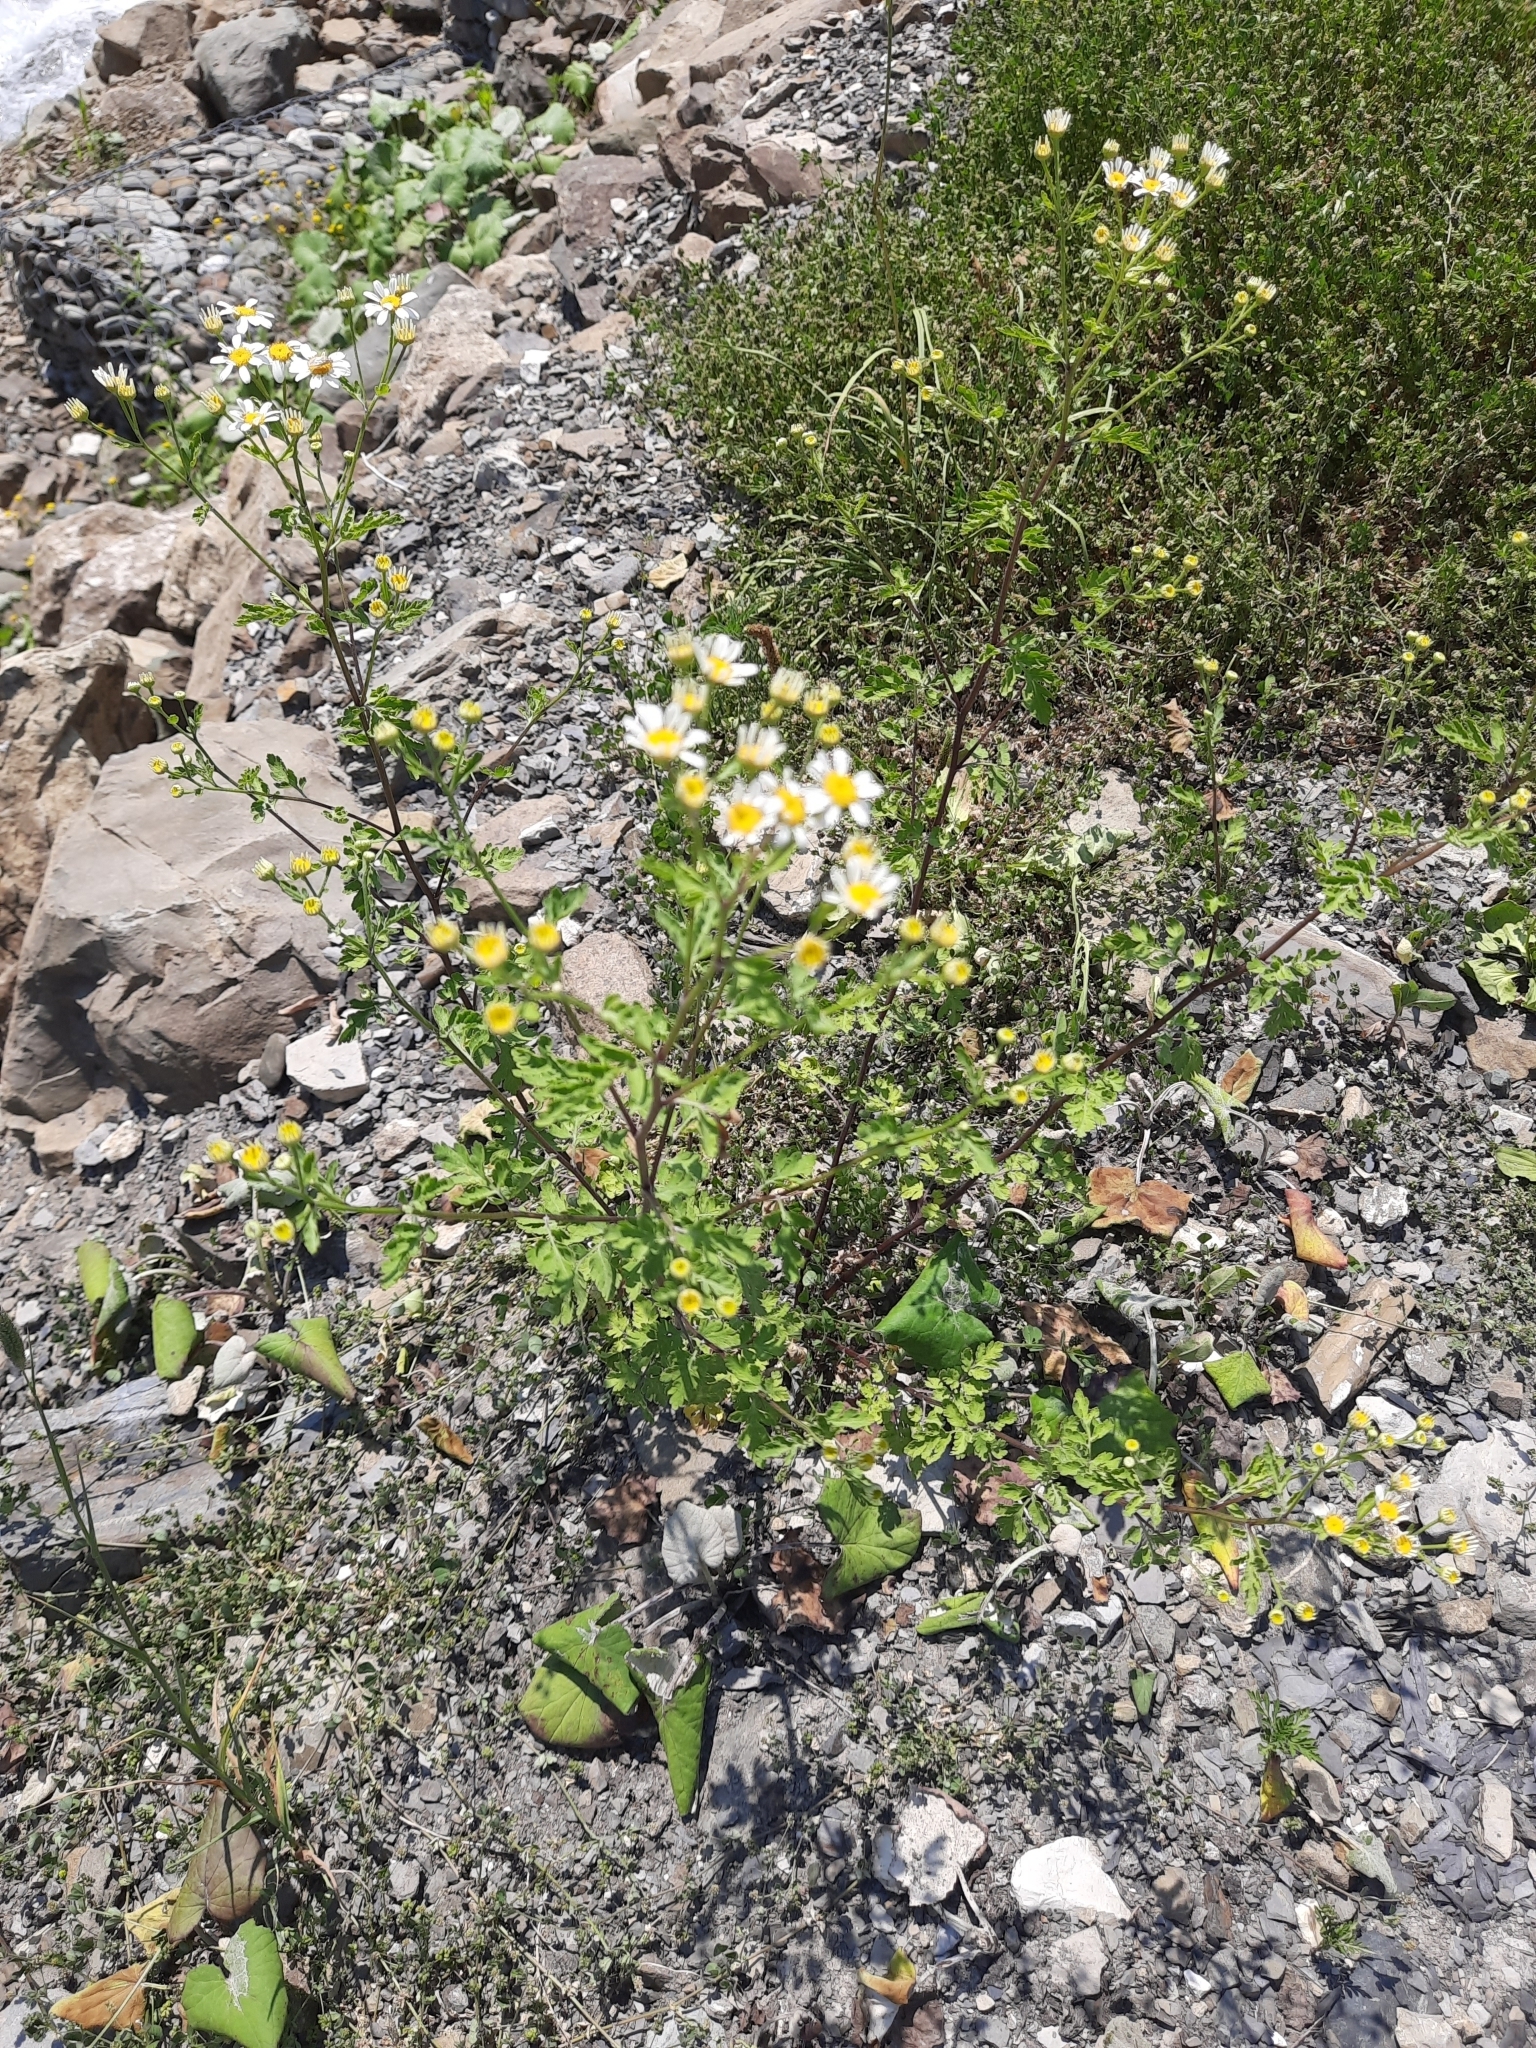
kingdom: Plantae
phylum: Tracheophyta
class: Magnoliopsida
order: Asterales
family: Asteraceae
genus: Tanacetum
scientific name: Tanacetum partheniifolium
